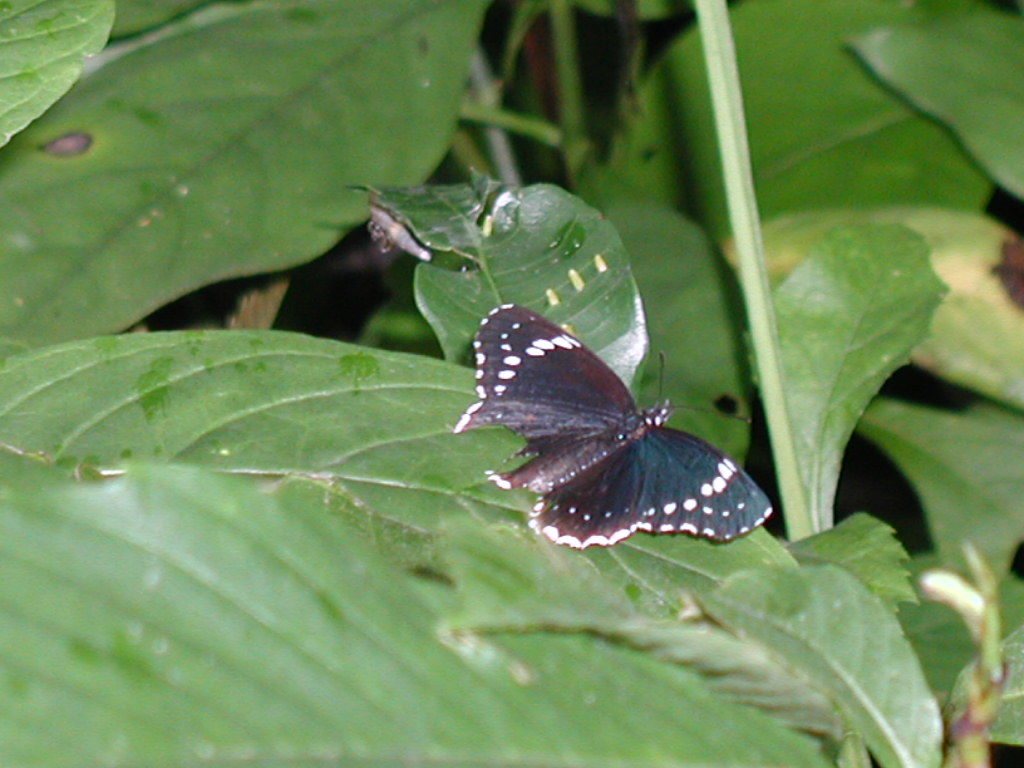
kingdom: Animalia
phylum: Arthropoda
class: Insecta
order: Lepidoptera
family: Nymphalidae
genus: Chlosyne
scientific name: Chlosyne hippodrome
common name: Simple patch
